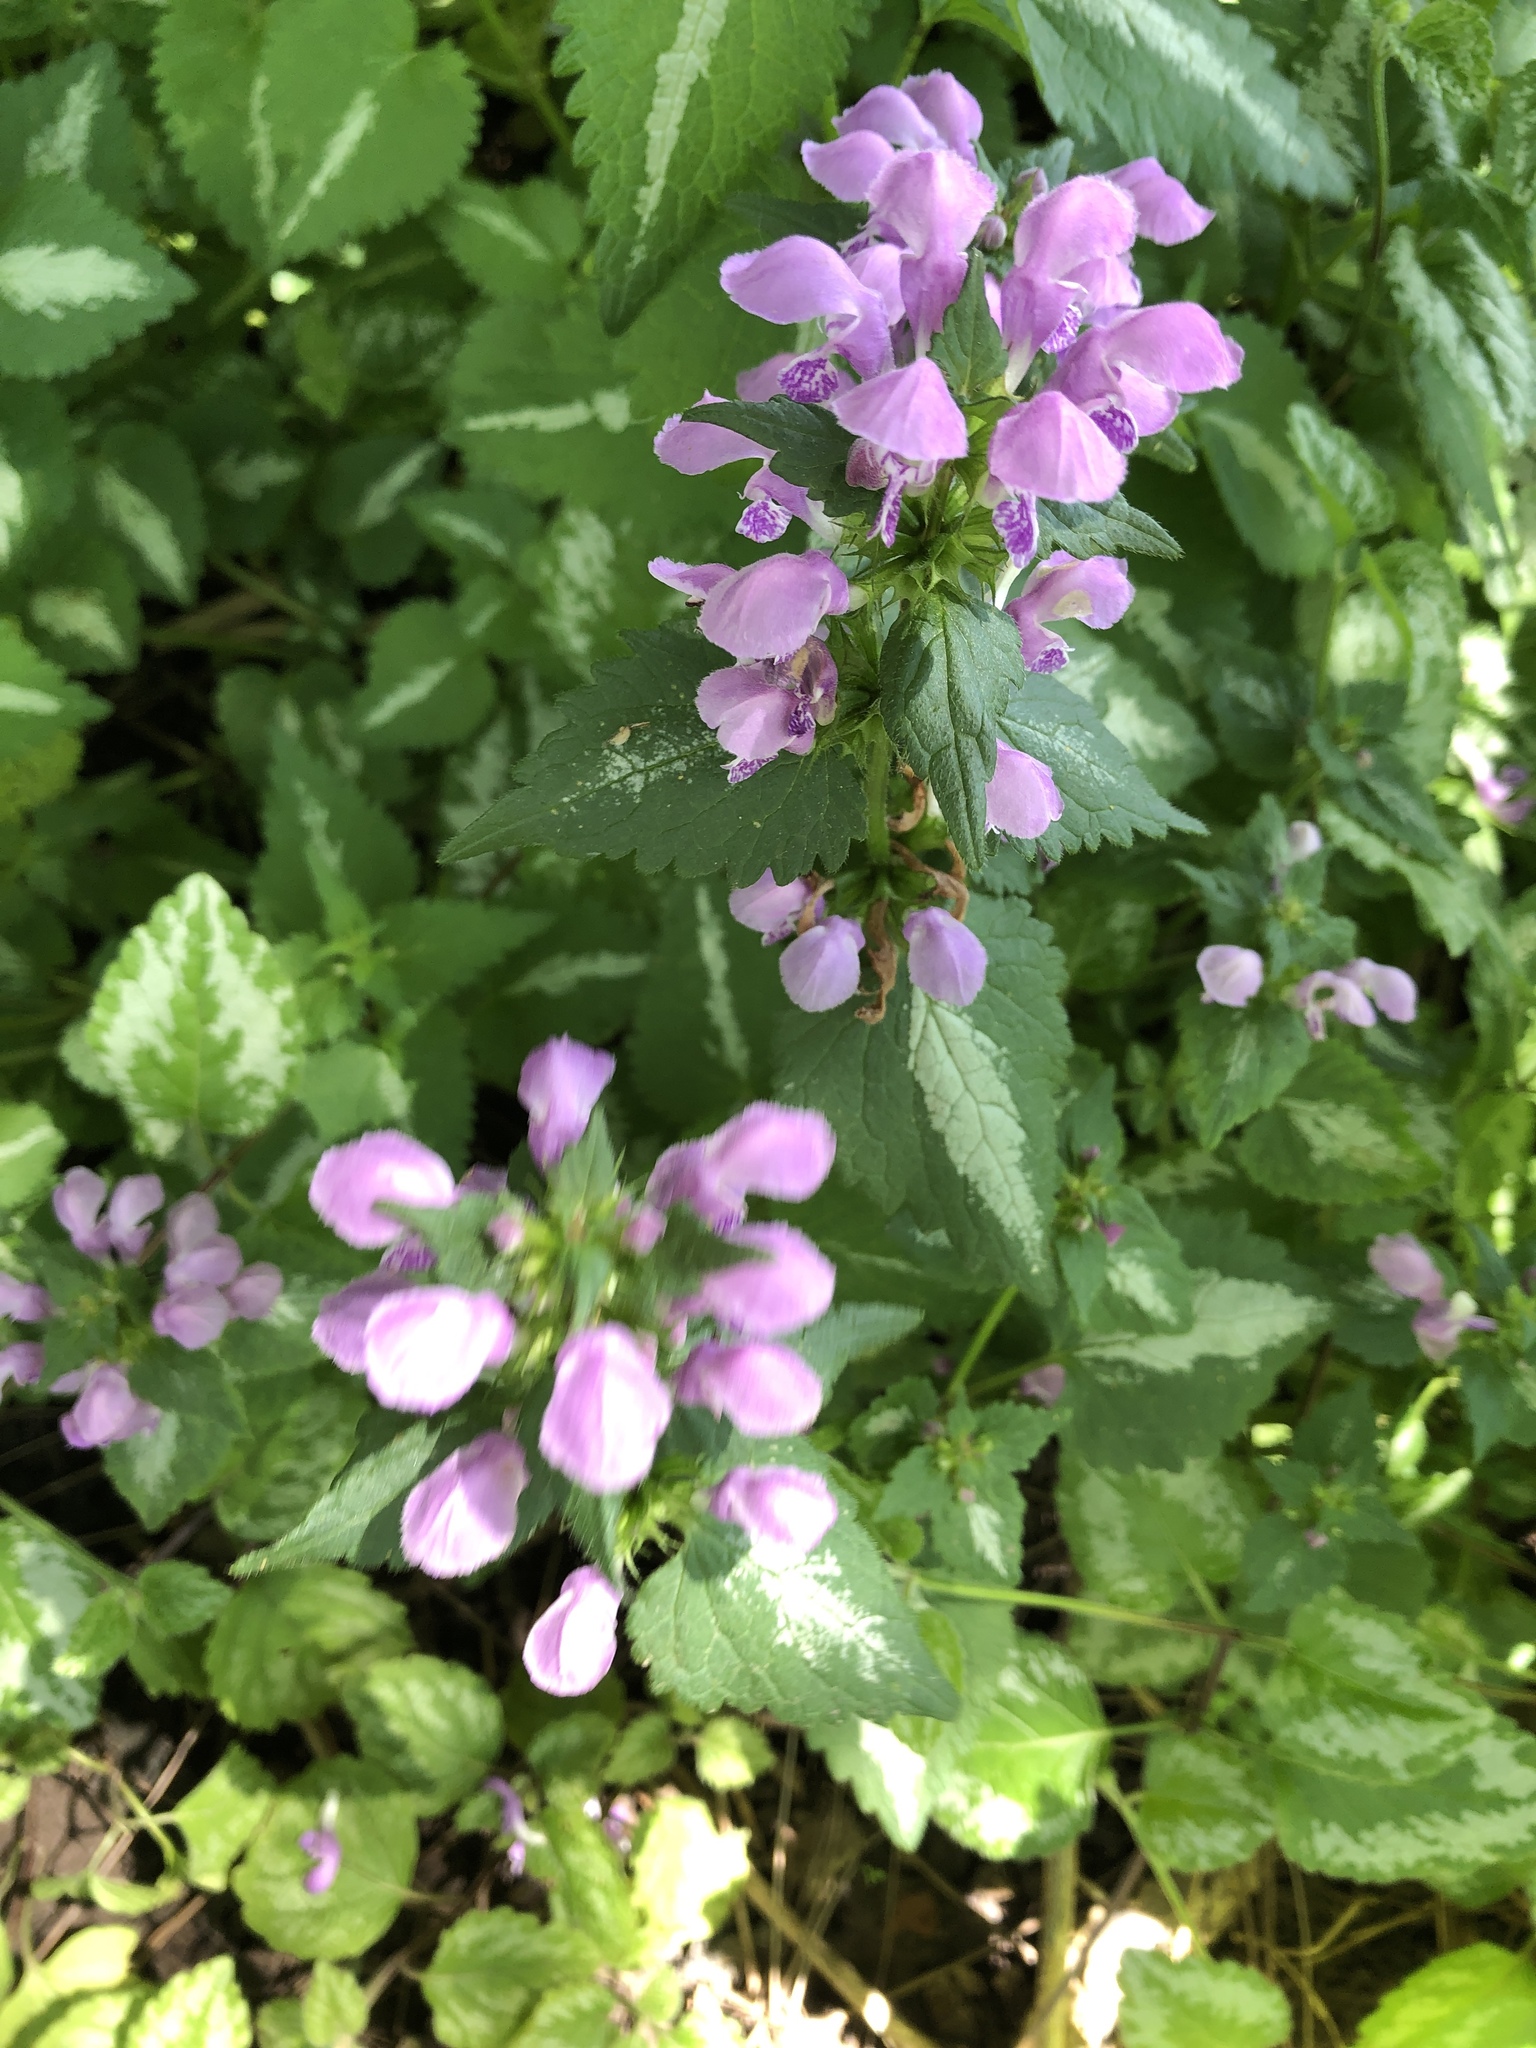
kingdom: Plantae
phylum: Tracheophyta
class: Magnoliopsida
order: Lamiales
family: Lamiaceae
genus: Lamium
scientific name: Lamium maculatum
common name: Spotted dead-nettle
